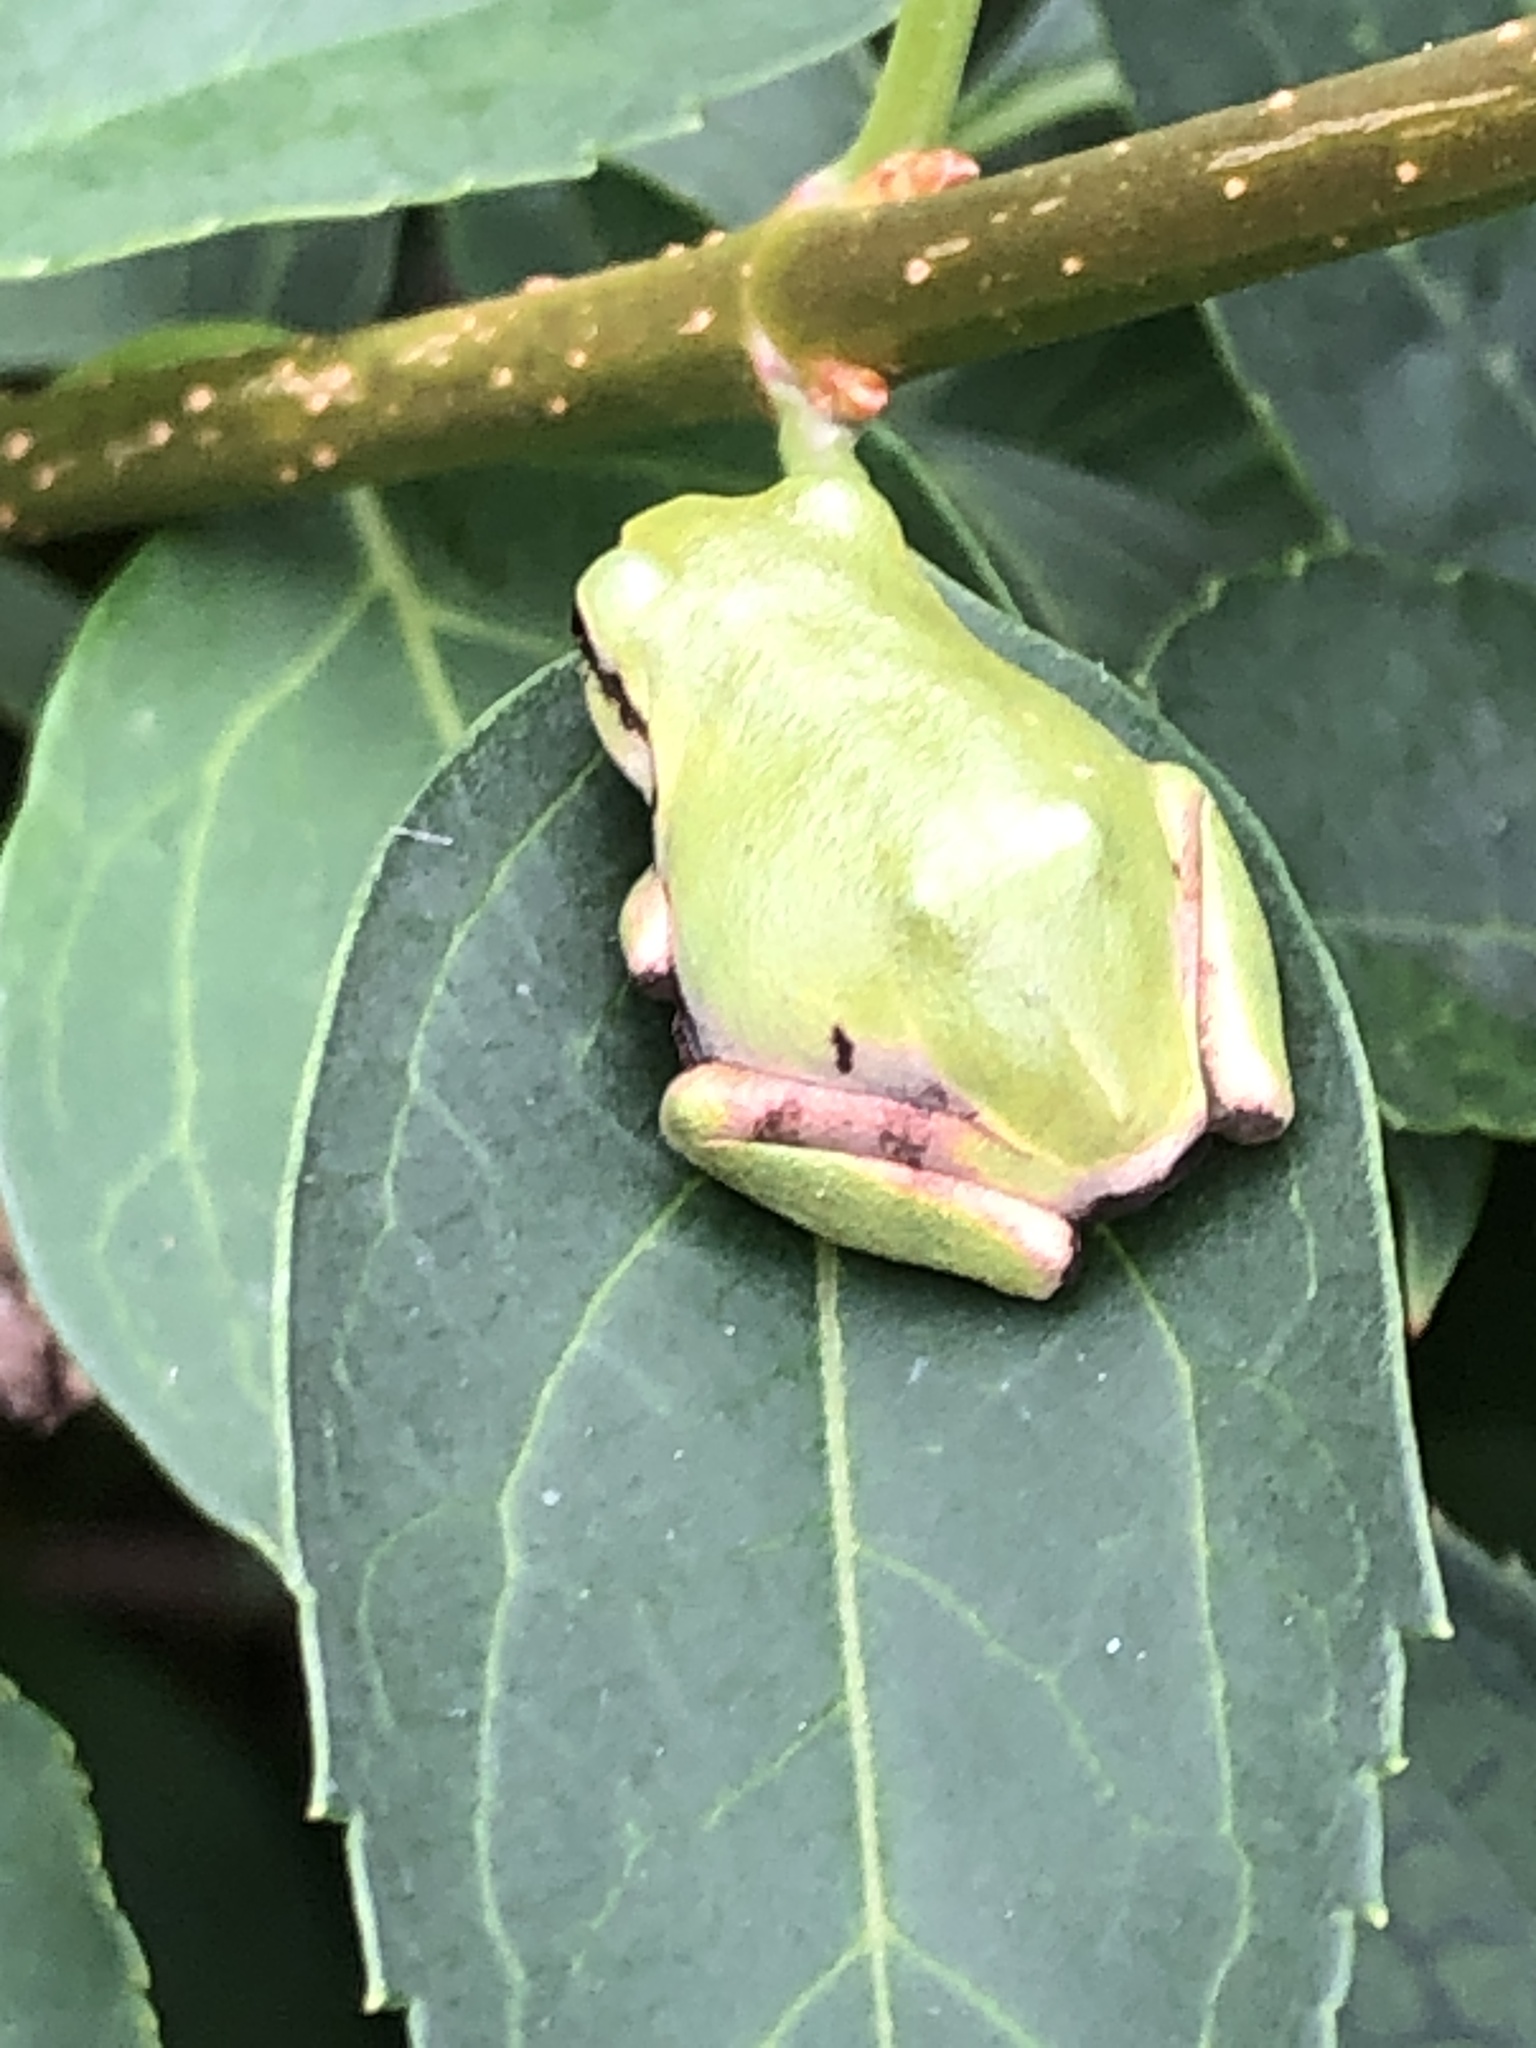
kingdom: Animalia
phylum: Chordata
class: Amphibia
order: Anura
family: Hylidae
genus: Dryophytes
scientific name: Dryophytes japonicus
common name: Japanese treefrog
